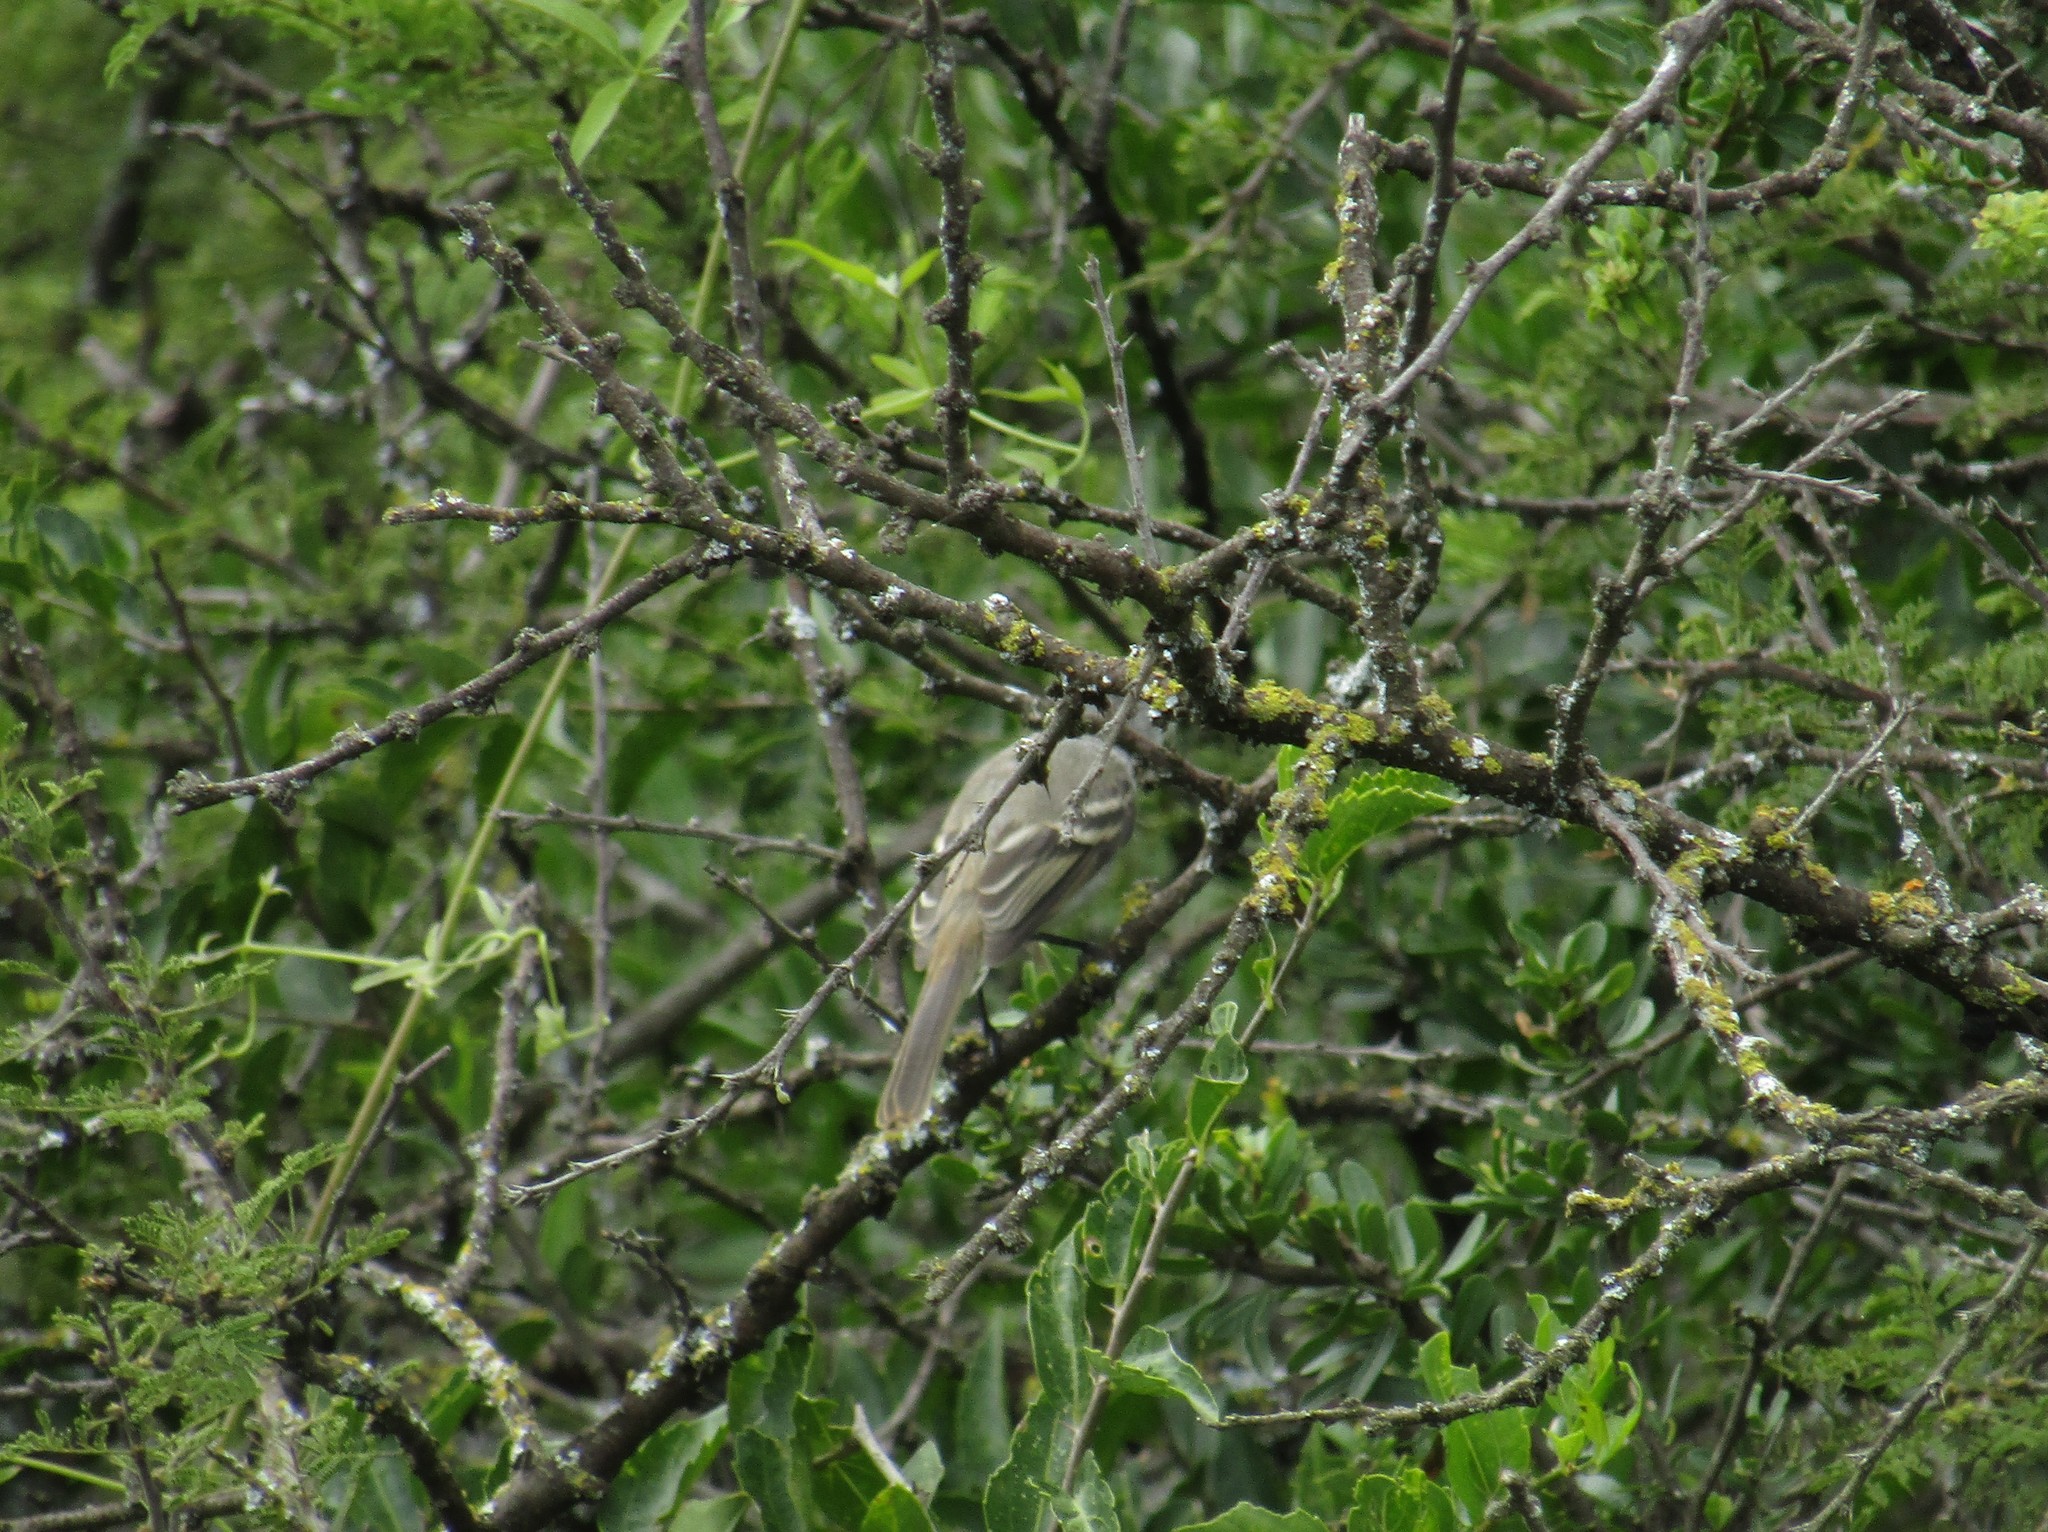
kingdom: Animalia
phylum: Chordata
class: Aves
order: Passeriformes
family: Tyrannidae
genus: Elaenia
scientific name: Elaenia albiceps
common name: White-crested elaenia
